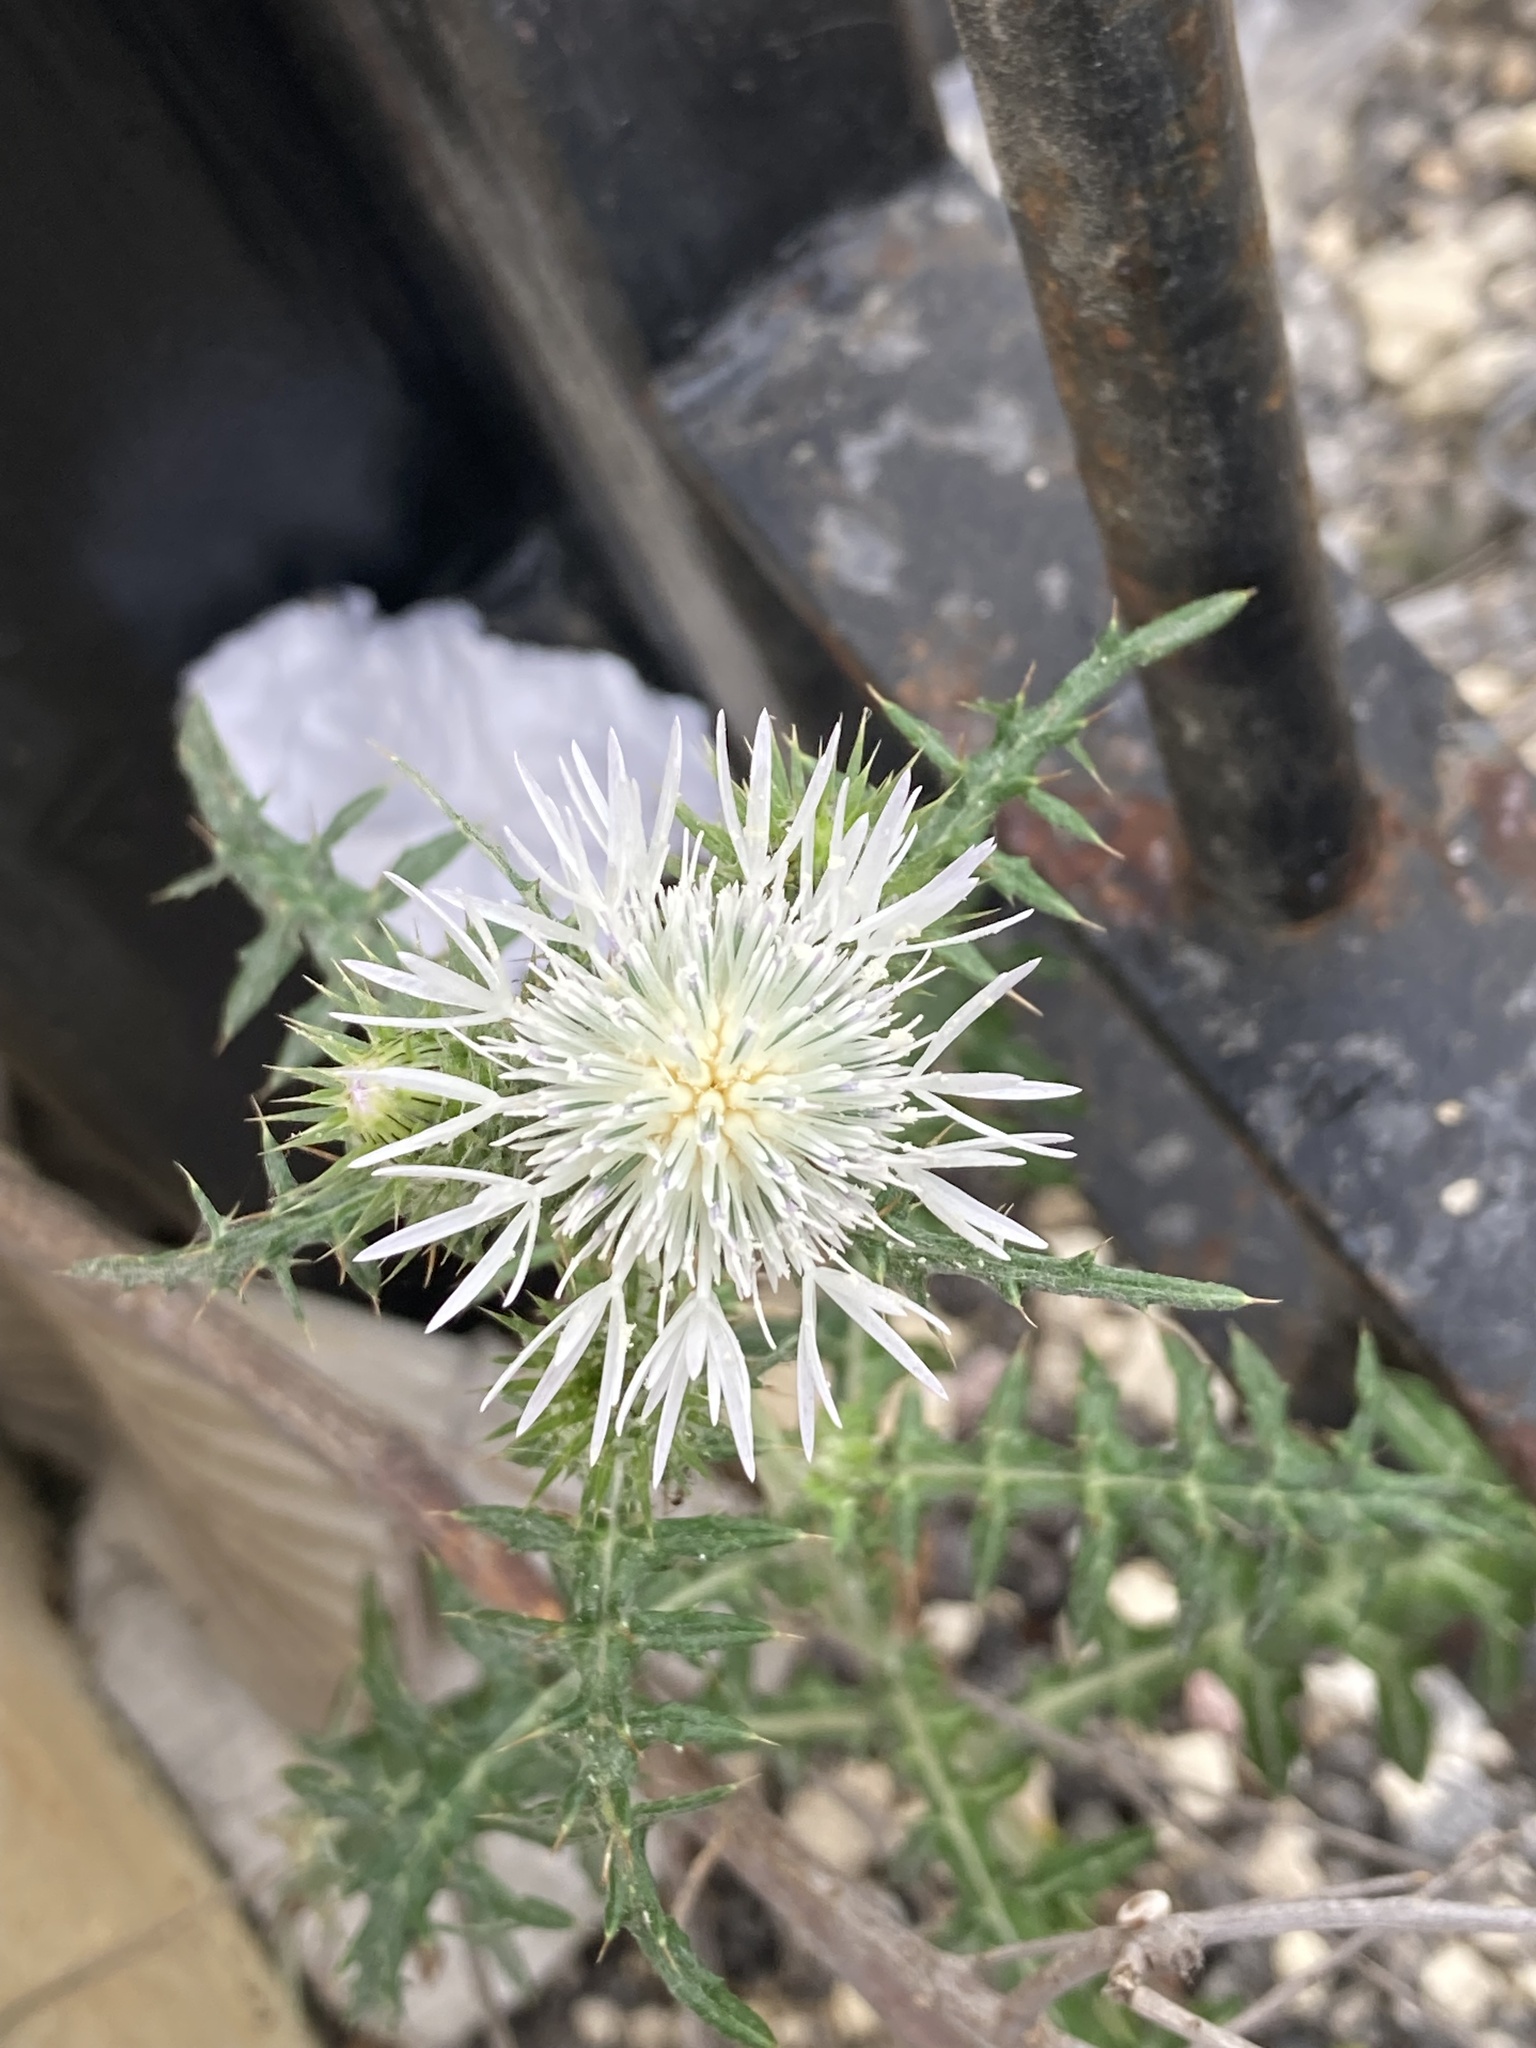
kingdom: Plantae
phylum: Tracheophyta
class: Magnoliopsida
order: Asterales
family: Asteraceae
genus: Galactites
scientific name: Galactites tomentosa
